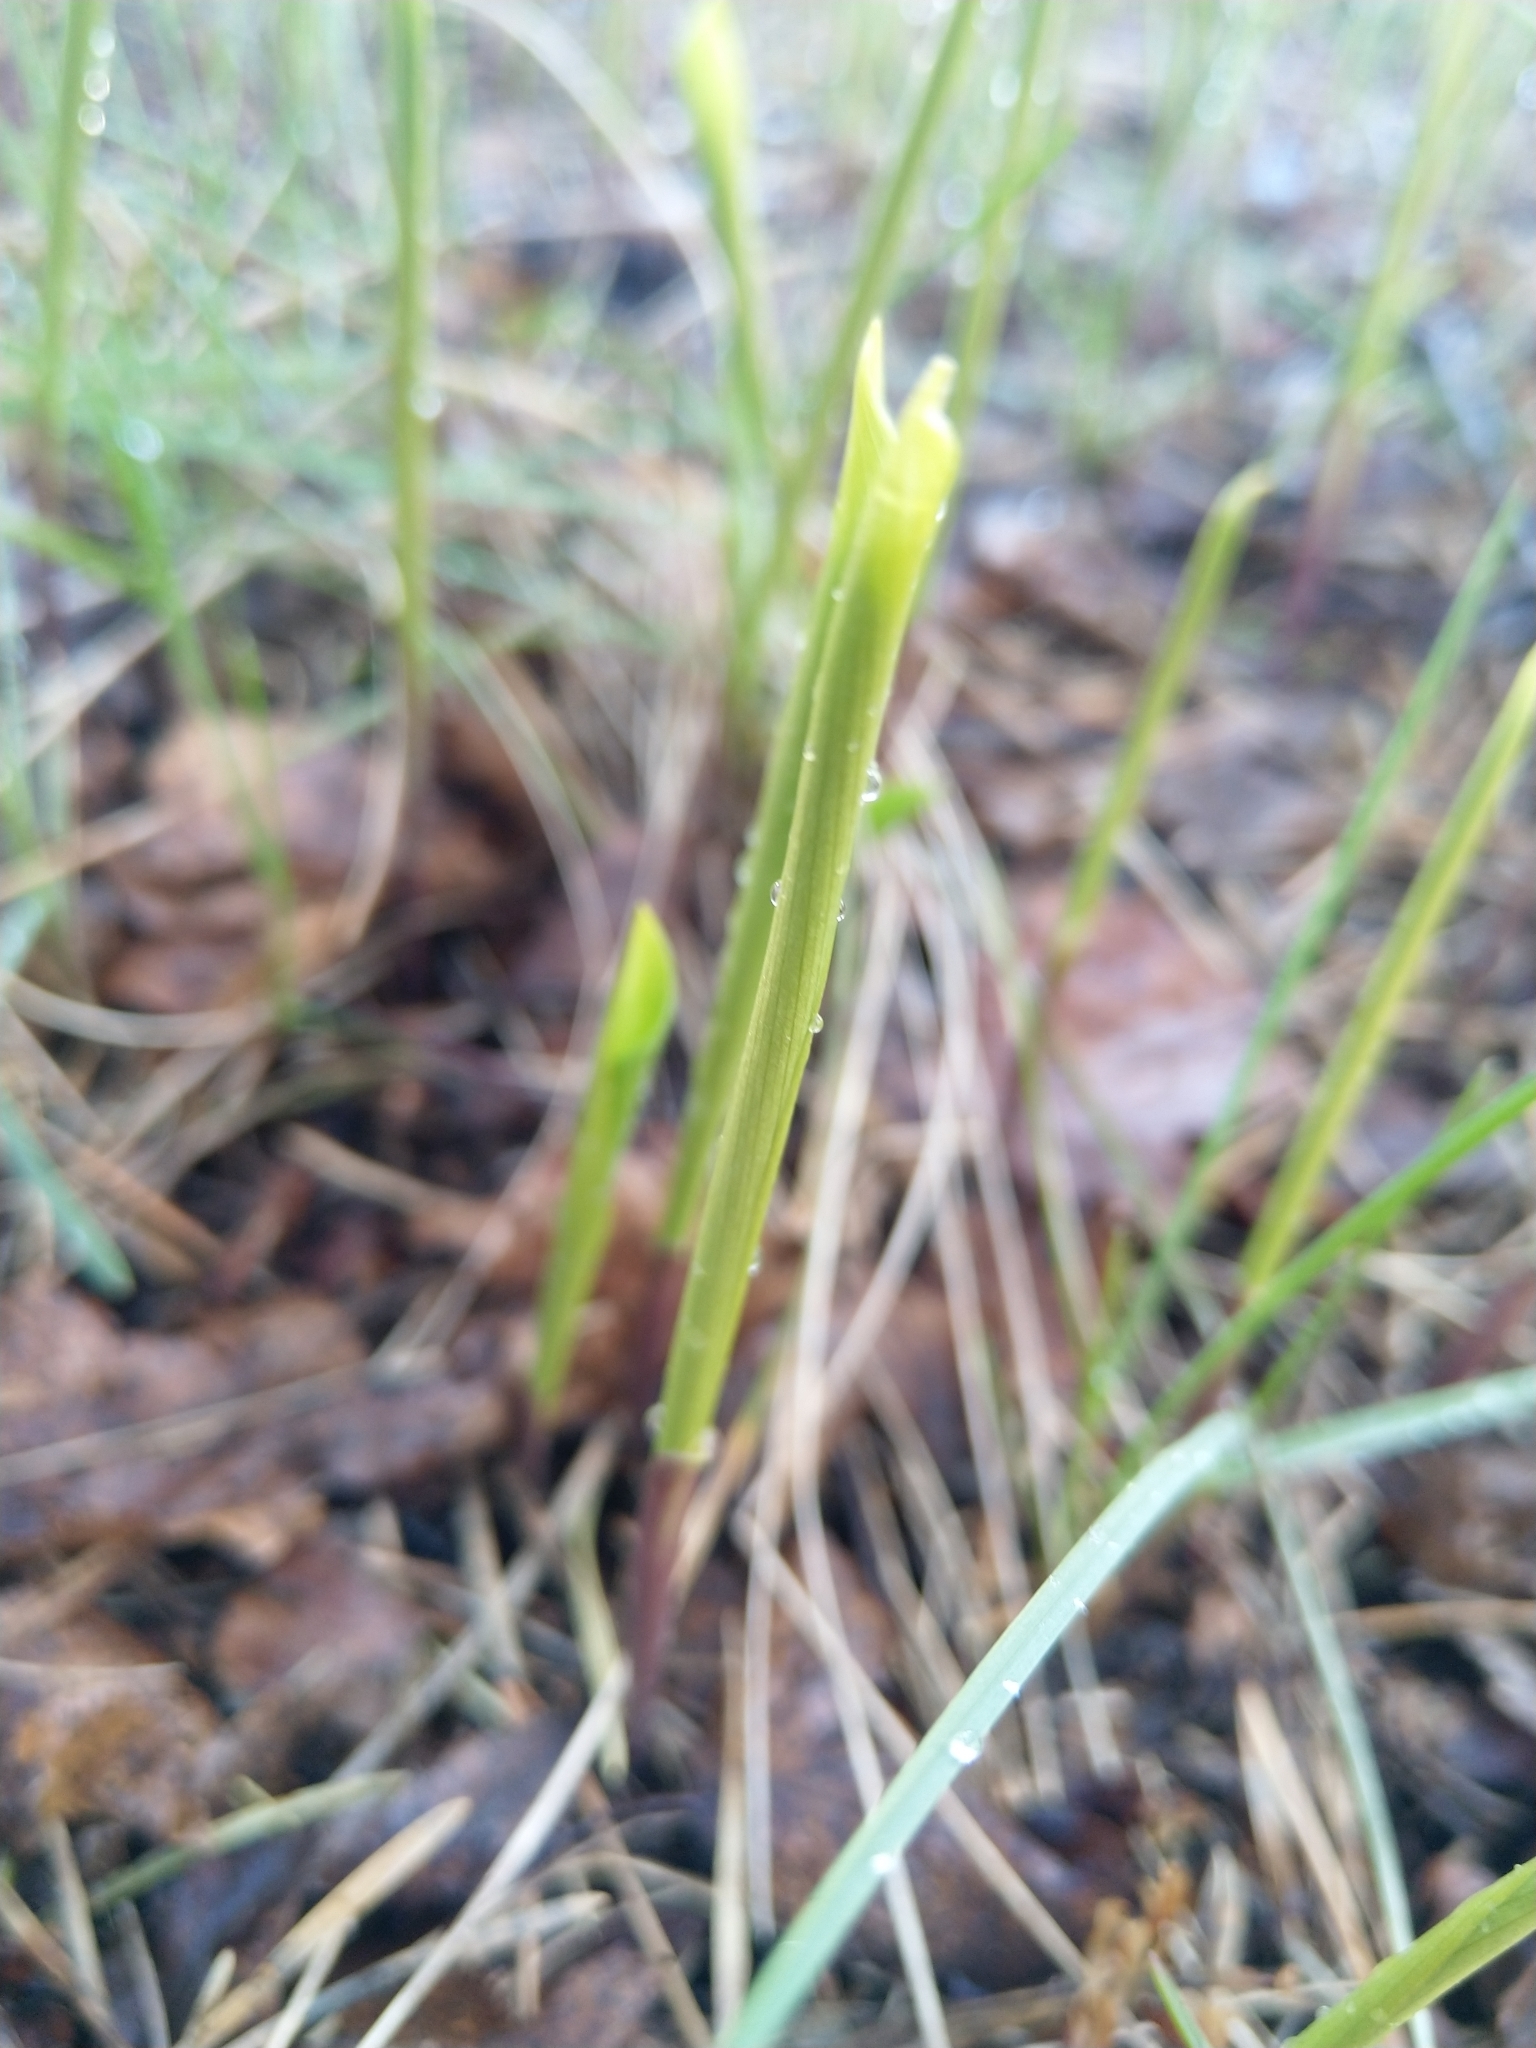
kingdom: Plantae
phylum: Tracheophyta
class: Liliopsida
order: Asparagales
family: Asparagaceae
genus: Convallaria
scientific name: Convallaria majalis
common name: Lily-of-the-valley
